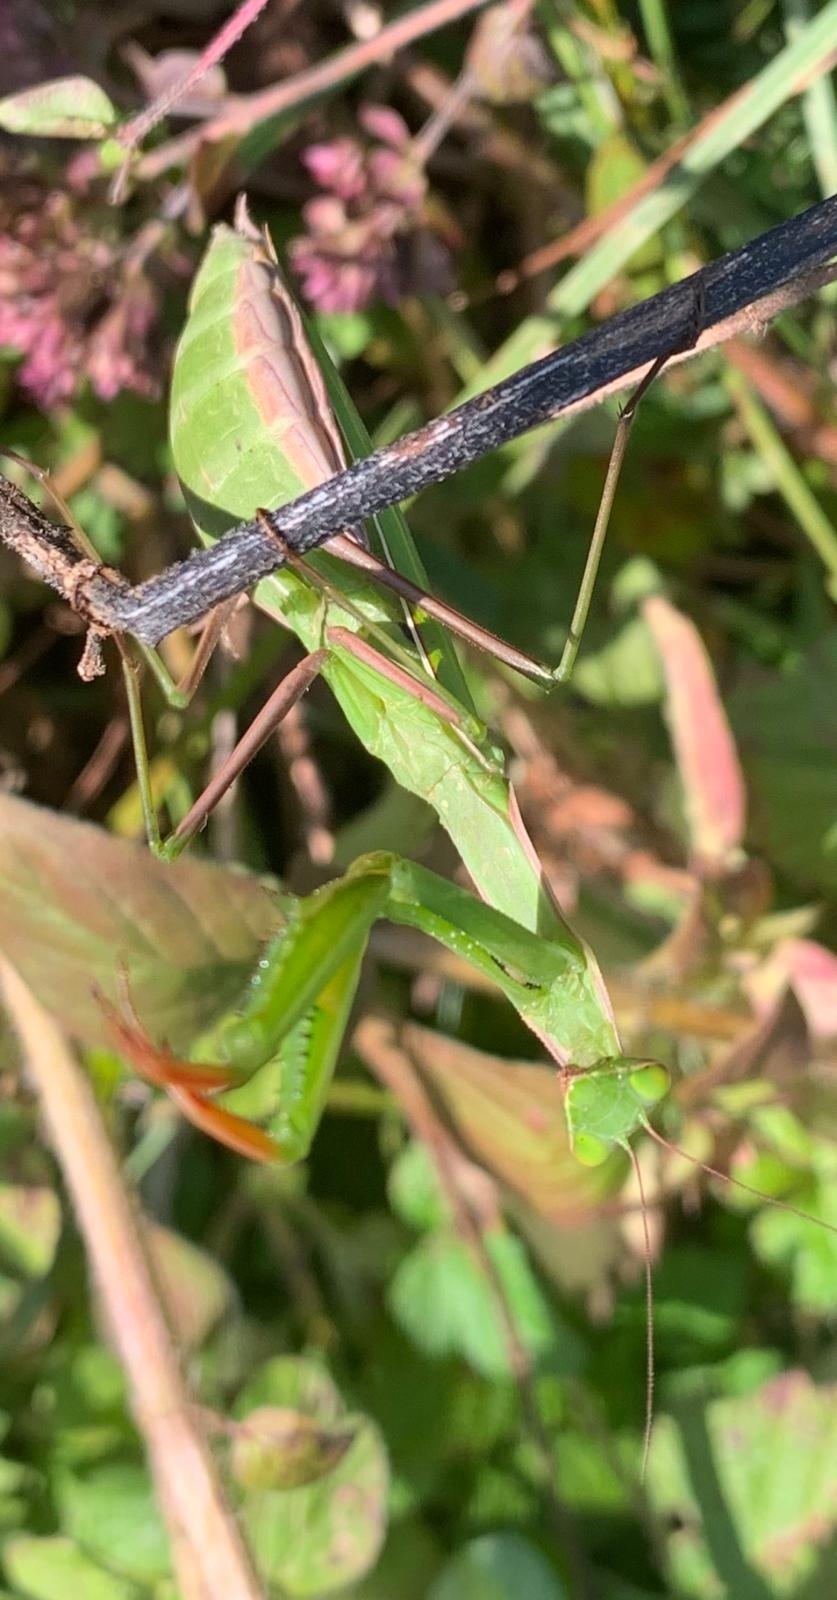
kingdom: Animalia
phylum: Arthropoda
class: Insecta
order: Mantodea
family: Mantidae
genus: Mantis
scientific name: Mantis religiosa
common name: Praying mantis
